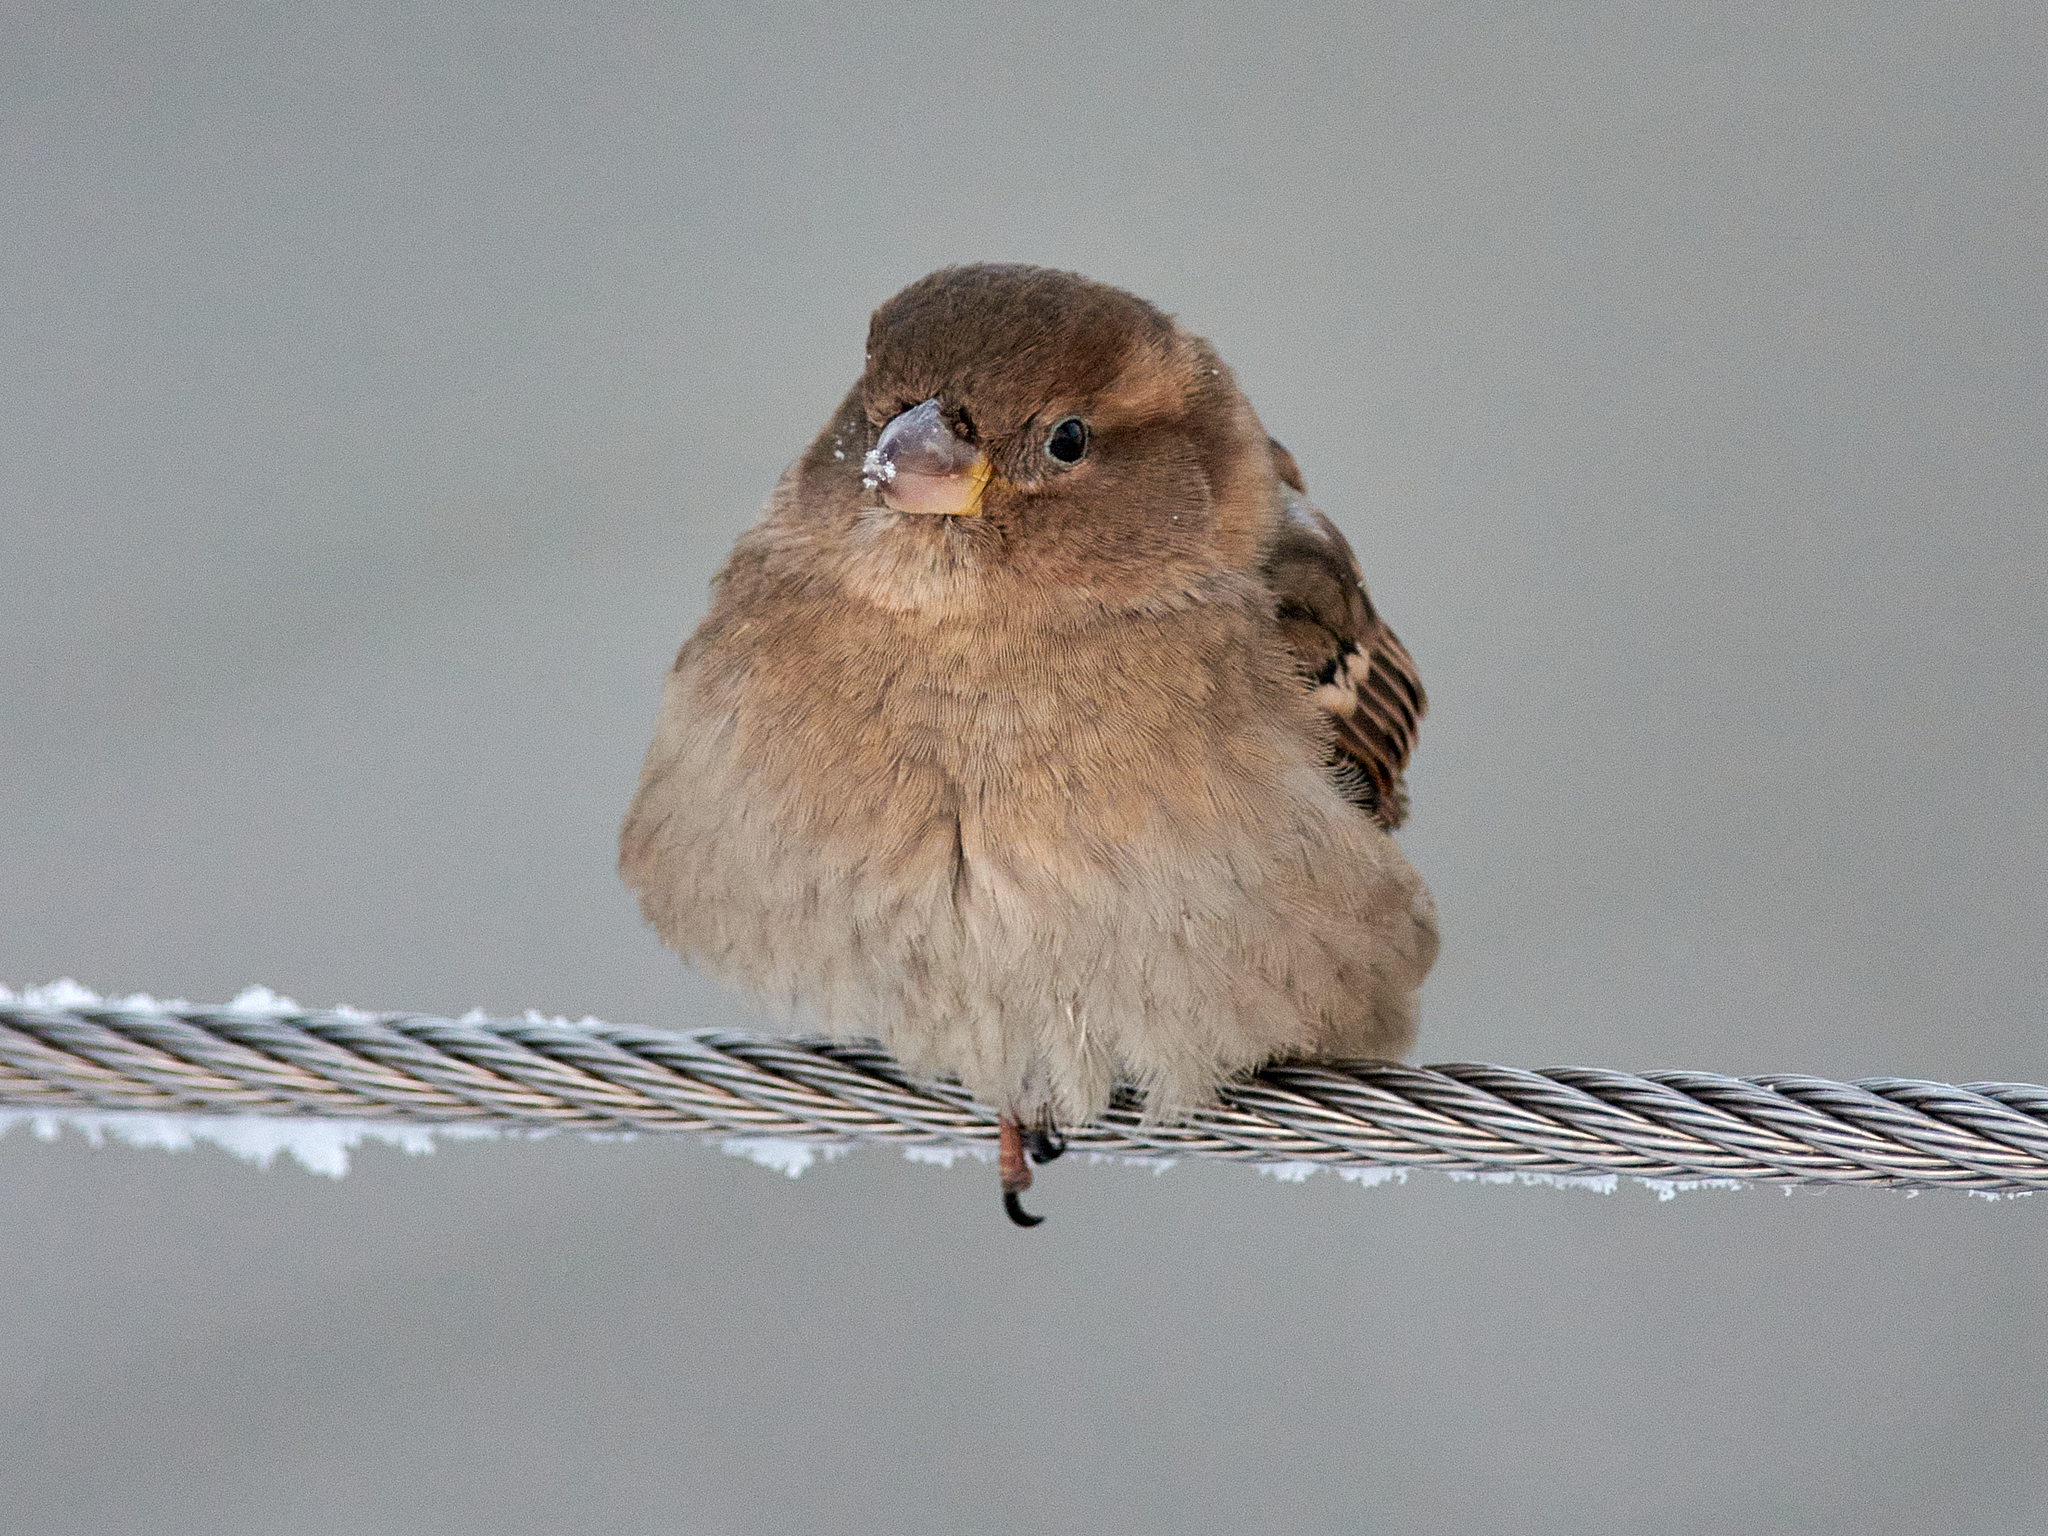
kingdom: Animalia
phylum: Chordata
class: Aves
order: Passeriformes
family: Passeridae
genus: Passer
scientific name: Passer domesticus
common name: House sparrow
